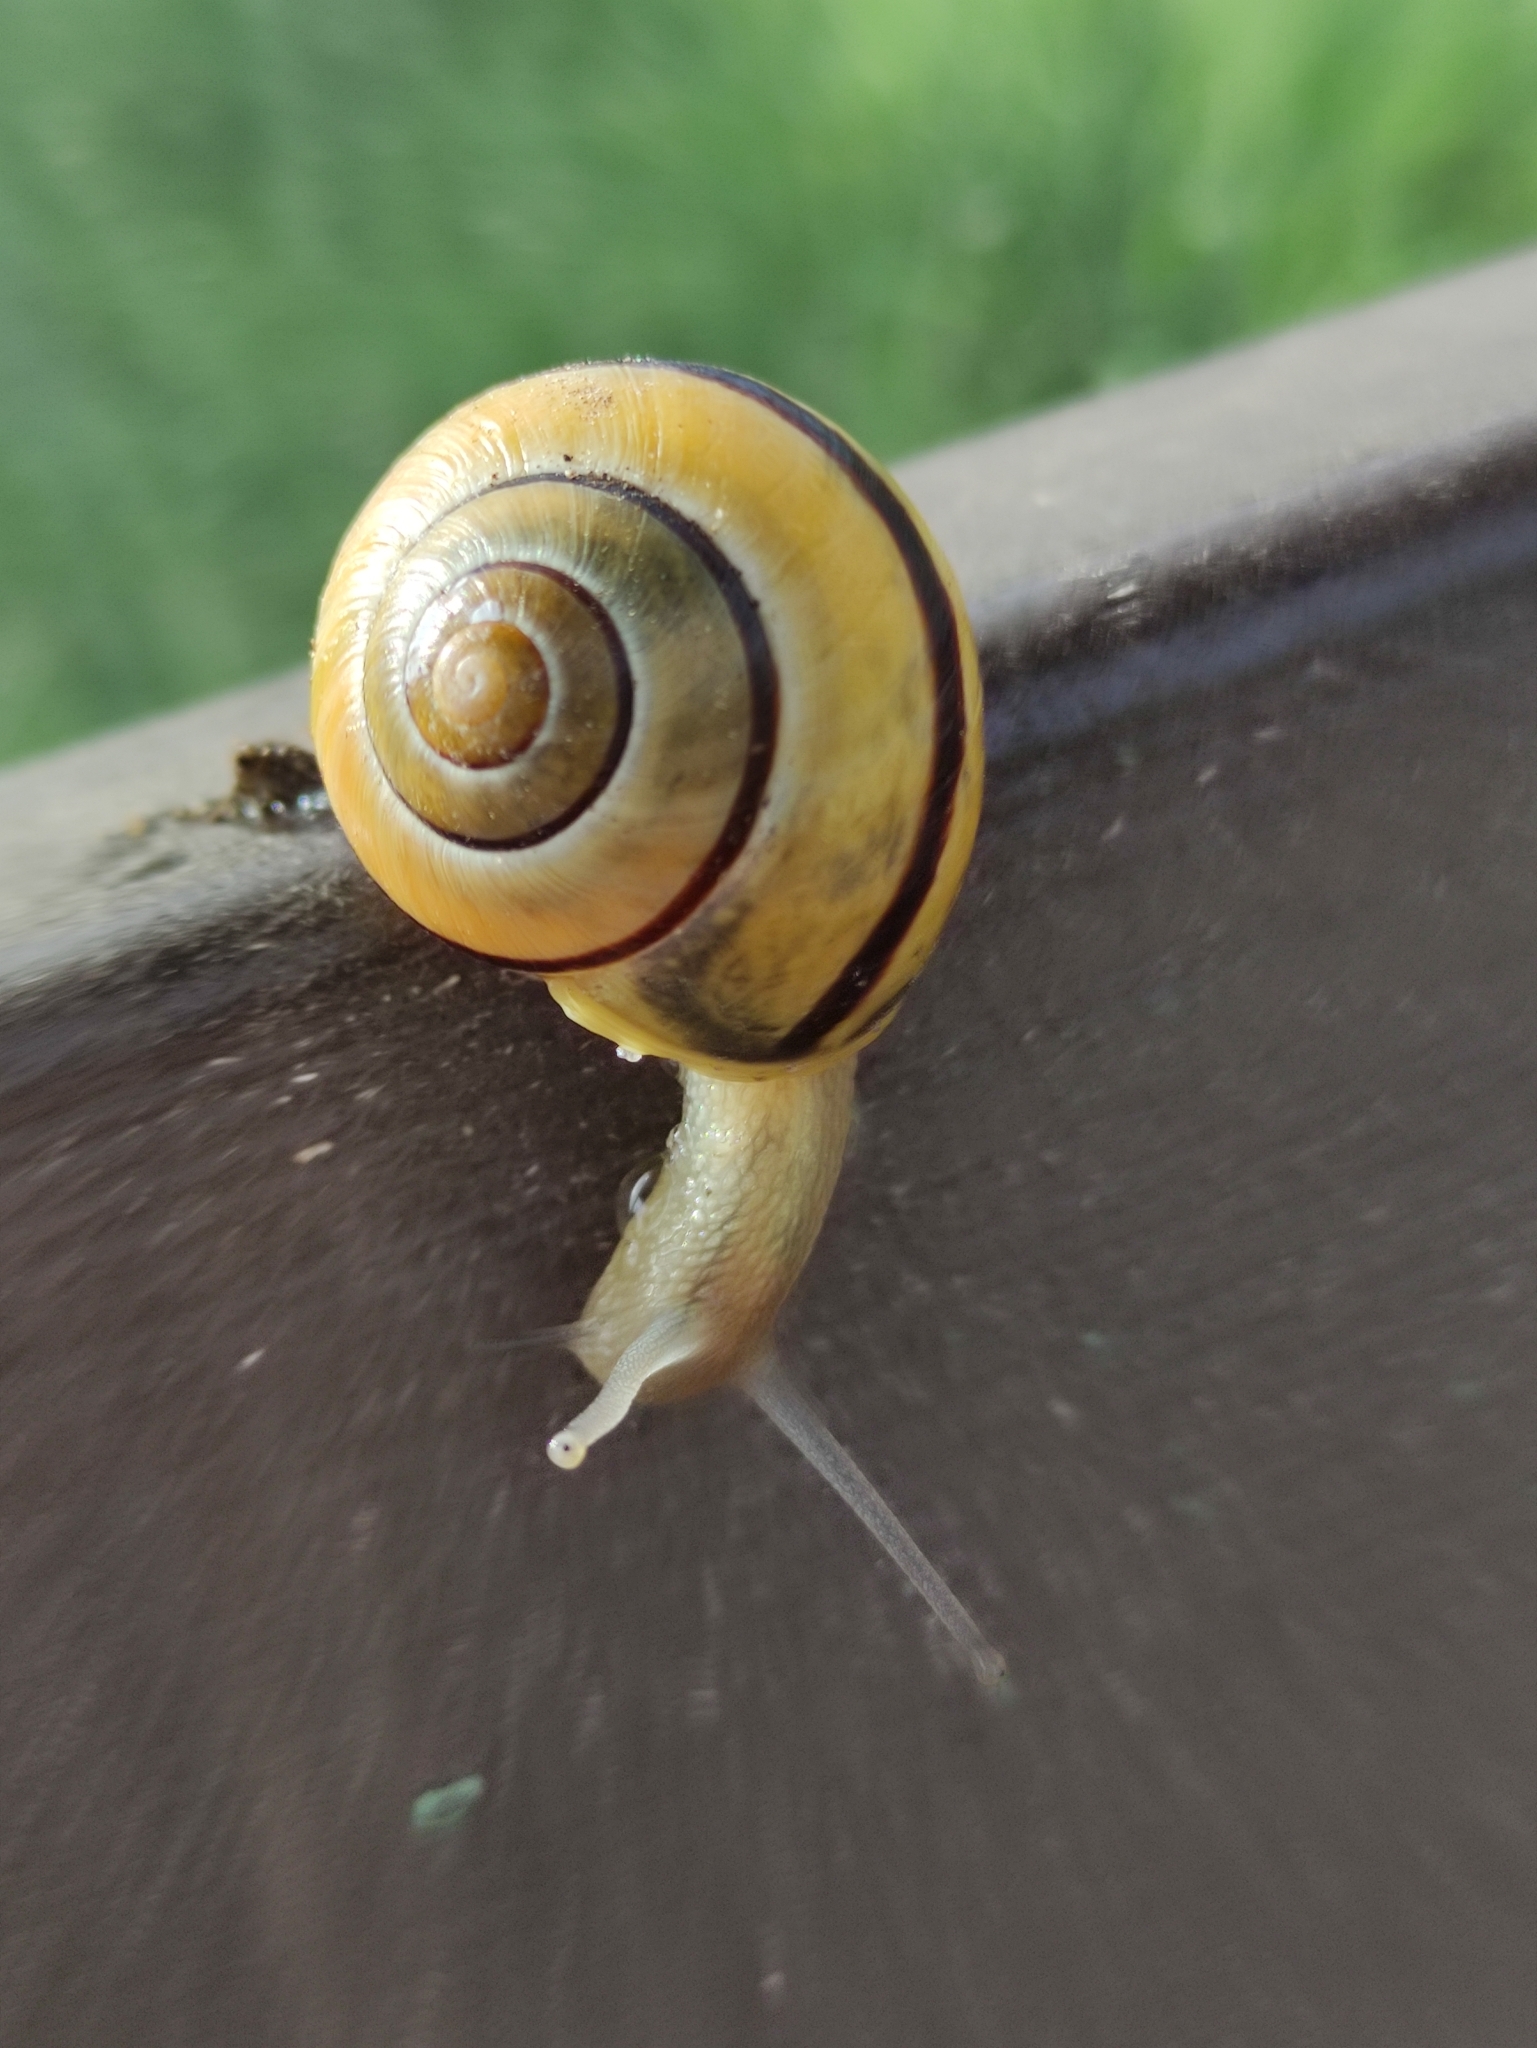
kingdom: Animalia
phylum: Mollusca
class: Gastropoda
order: Stylommatophora
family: Helicidae
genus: Cepaea
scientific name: Cepaea nemoralis
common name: Grovesnail
